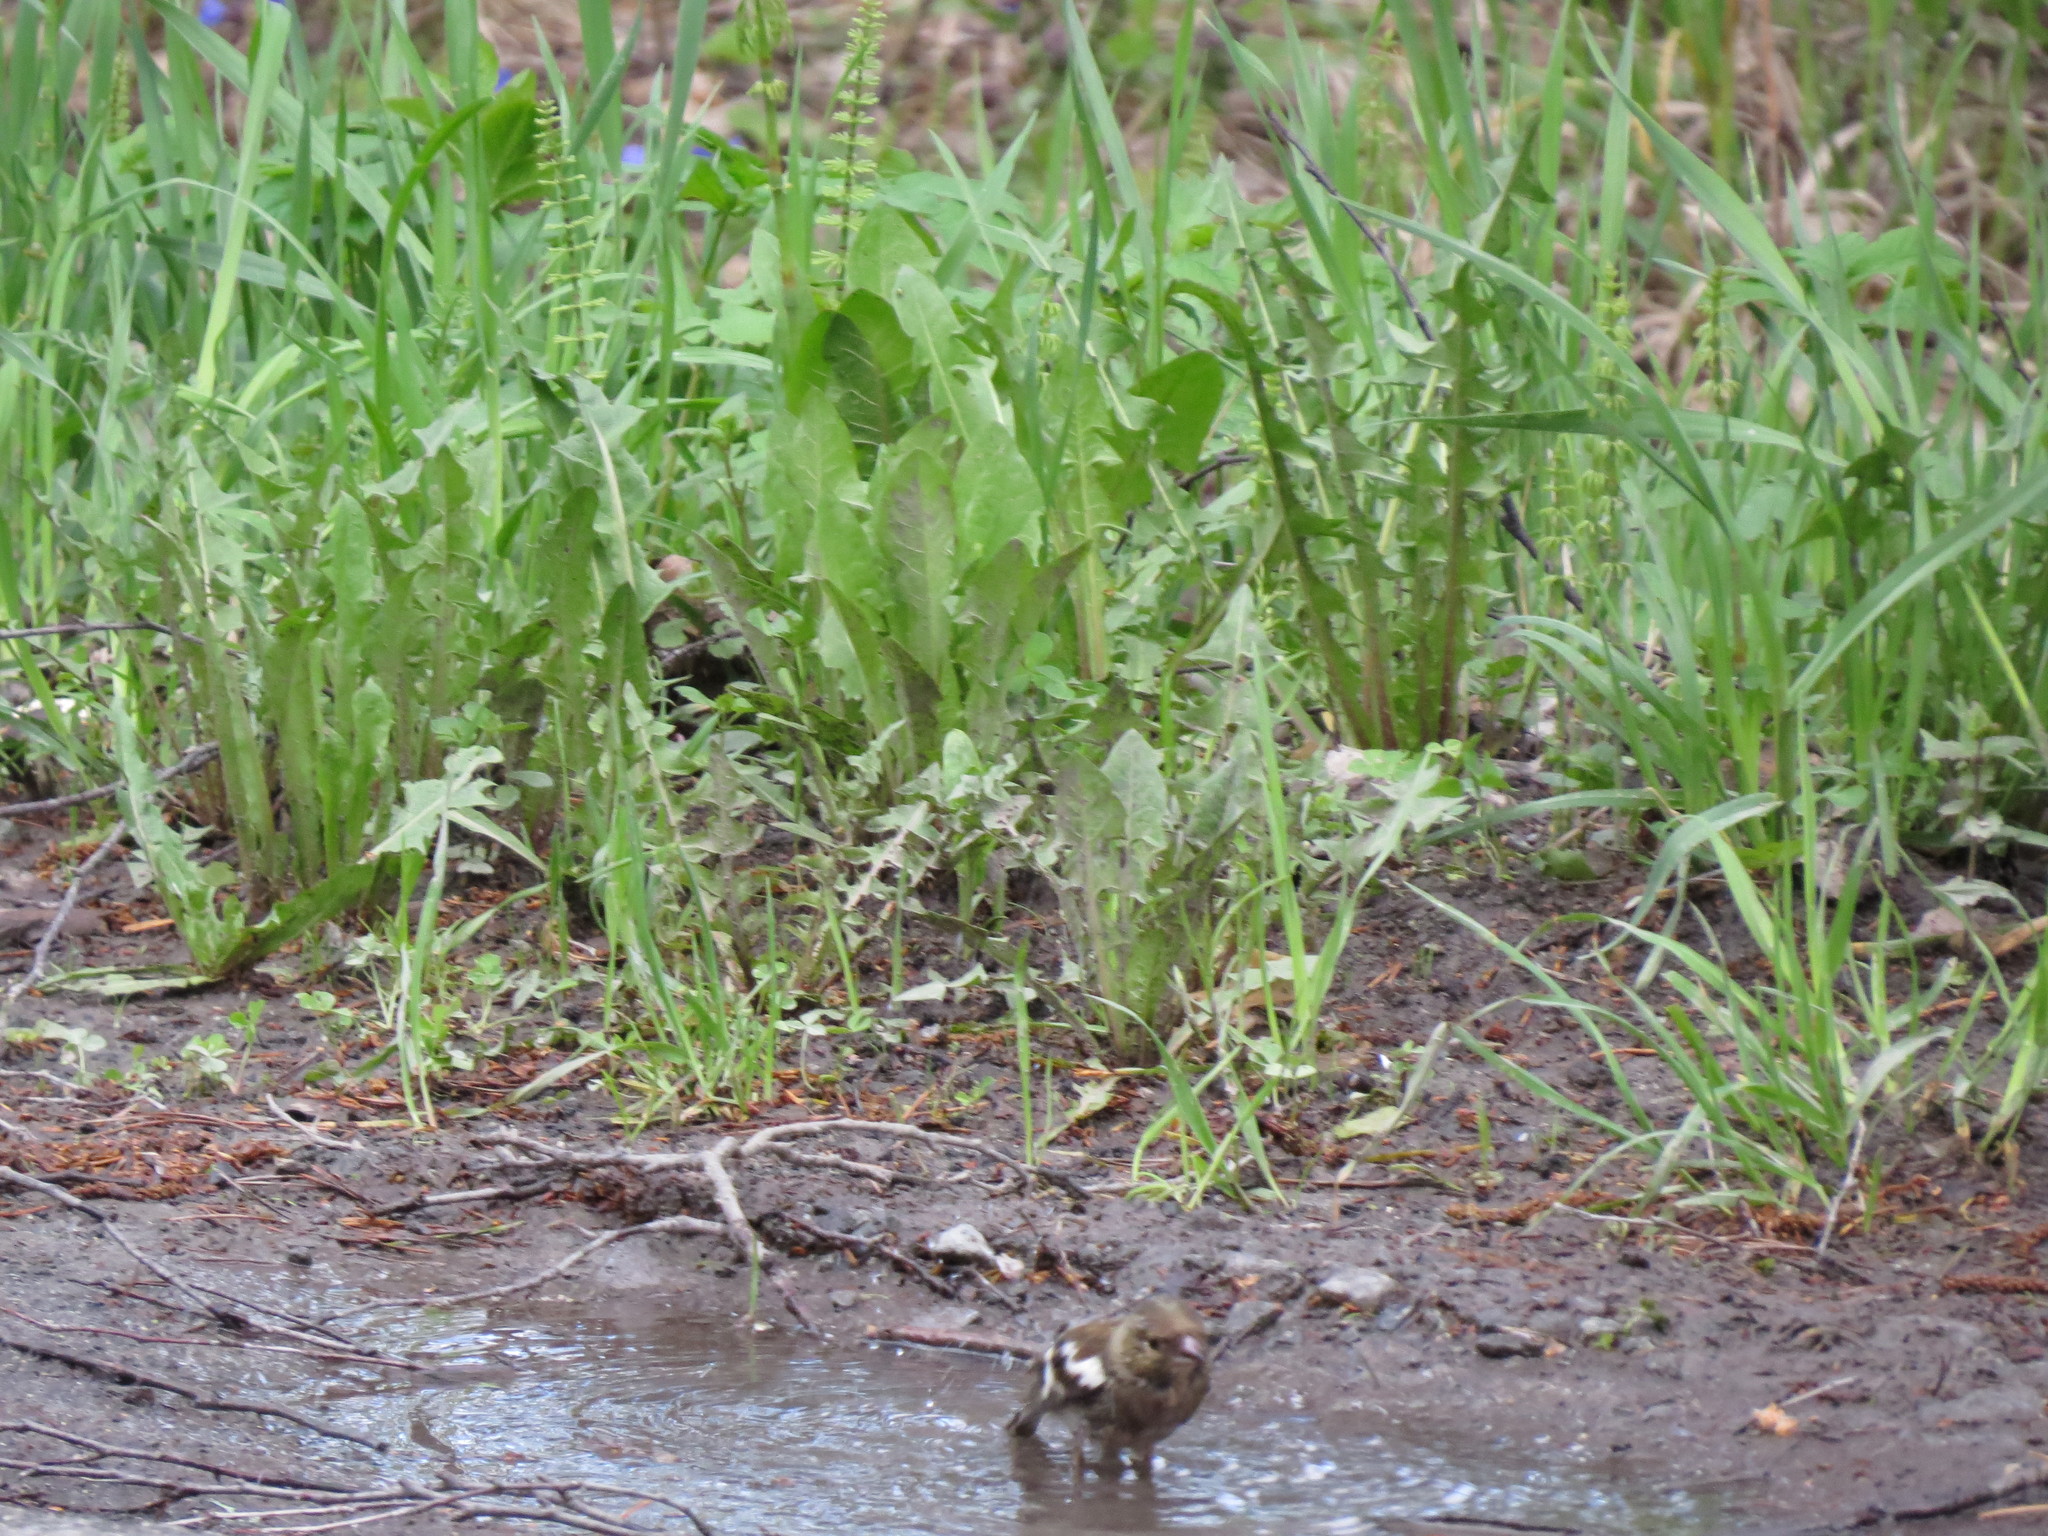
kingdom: Animalia
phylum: Chordata
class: Aves
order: Passeriformes
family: Fringillidae
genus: Fringilla
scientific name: Fringilla coelebs
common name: Common chaffinch
